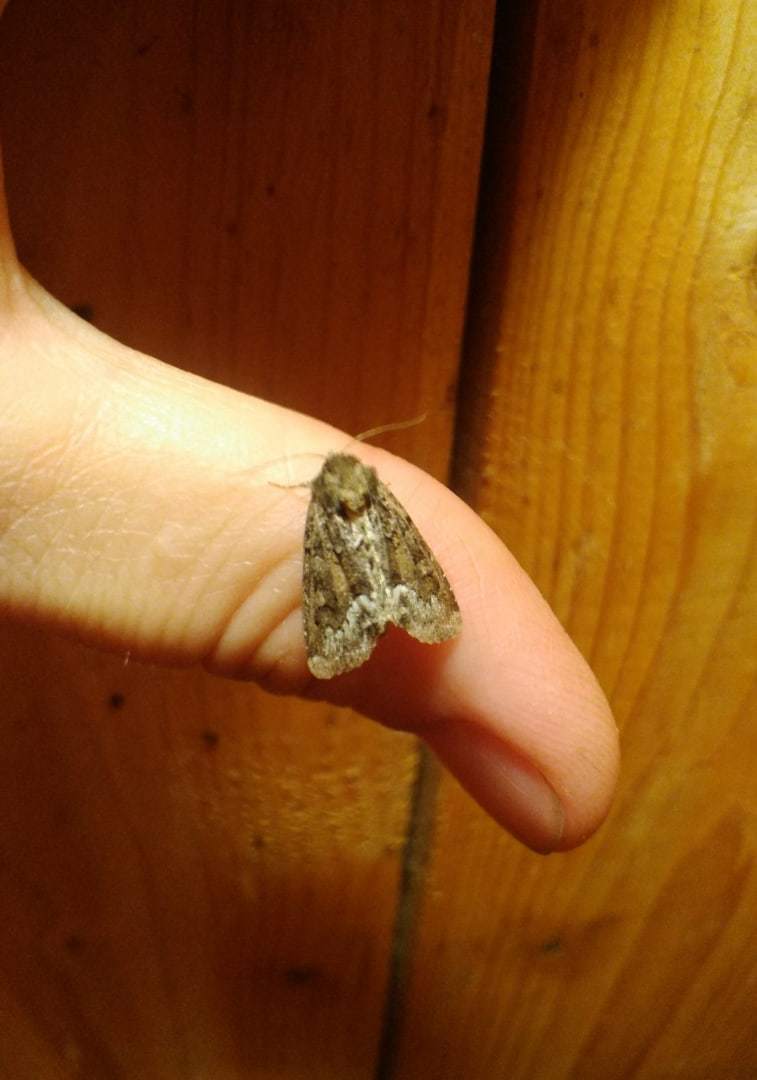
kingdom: Animalia
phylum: Arthropoda
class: Insecta
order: Lepidoptera
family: Noctuidae
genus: Oligia
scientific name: Oligia strigilis
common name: Marbled minor
